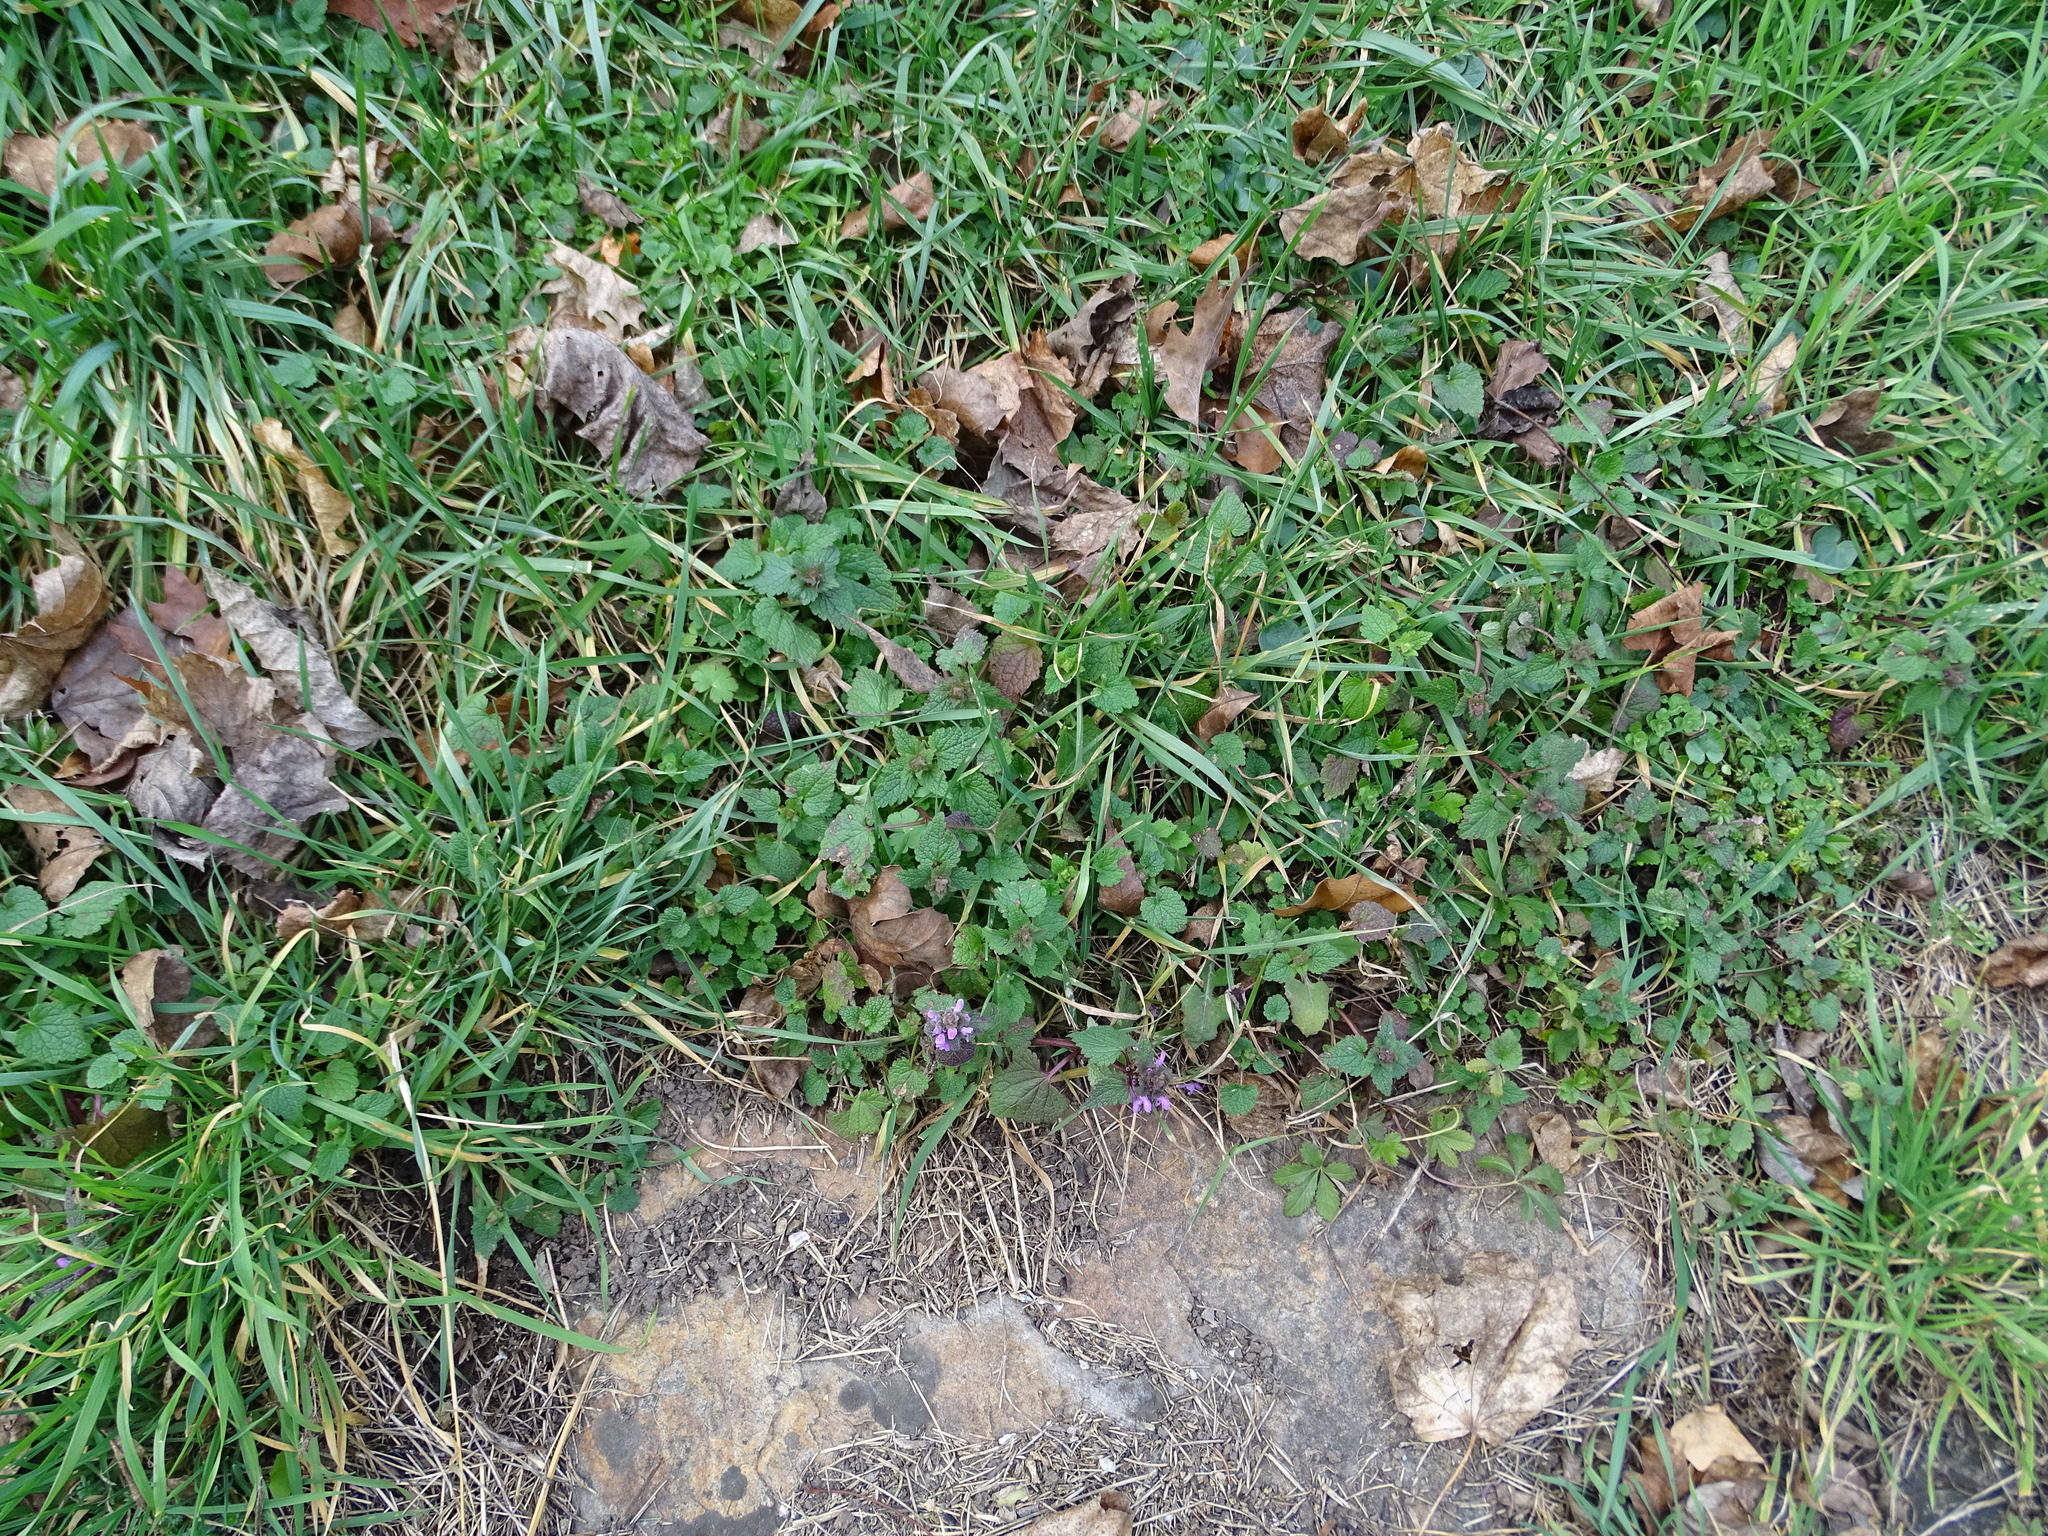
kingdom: Plantae
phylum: Tracheophyta
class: Magnoliopsida
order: Lamiales
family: Lamiaceae
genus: Lamium
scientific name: Lamium purpureum
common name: Red dead-nettle
